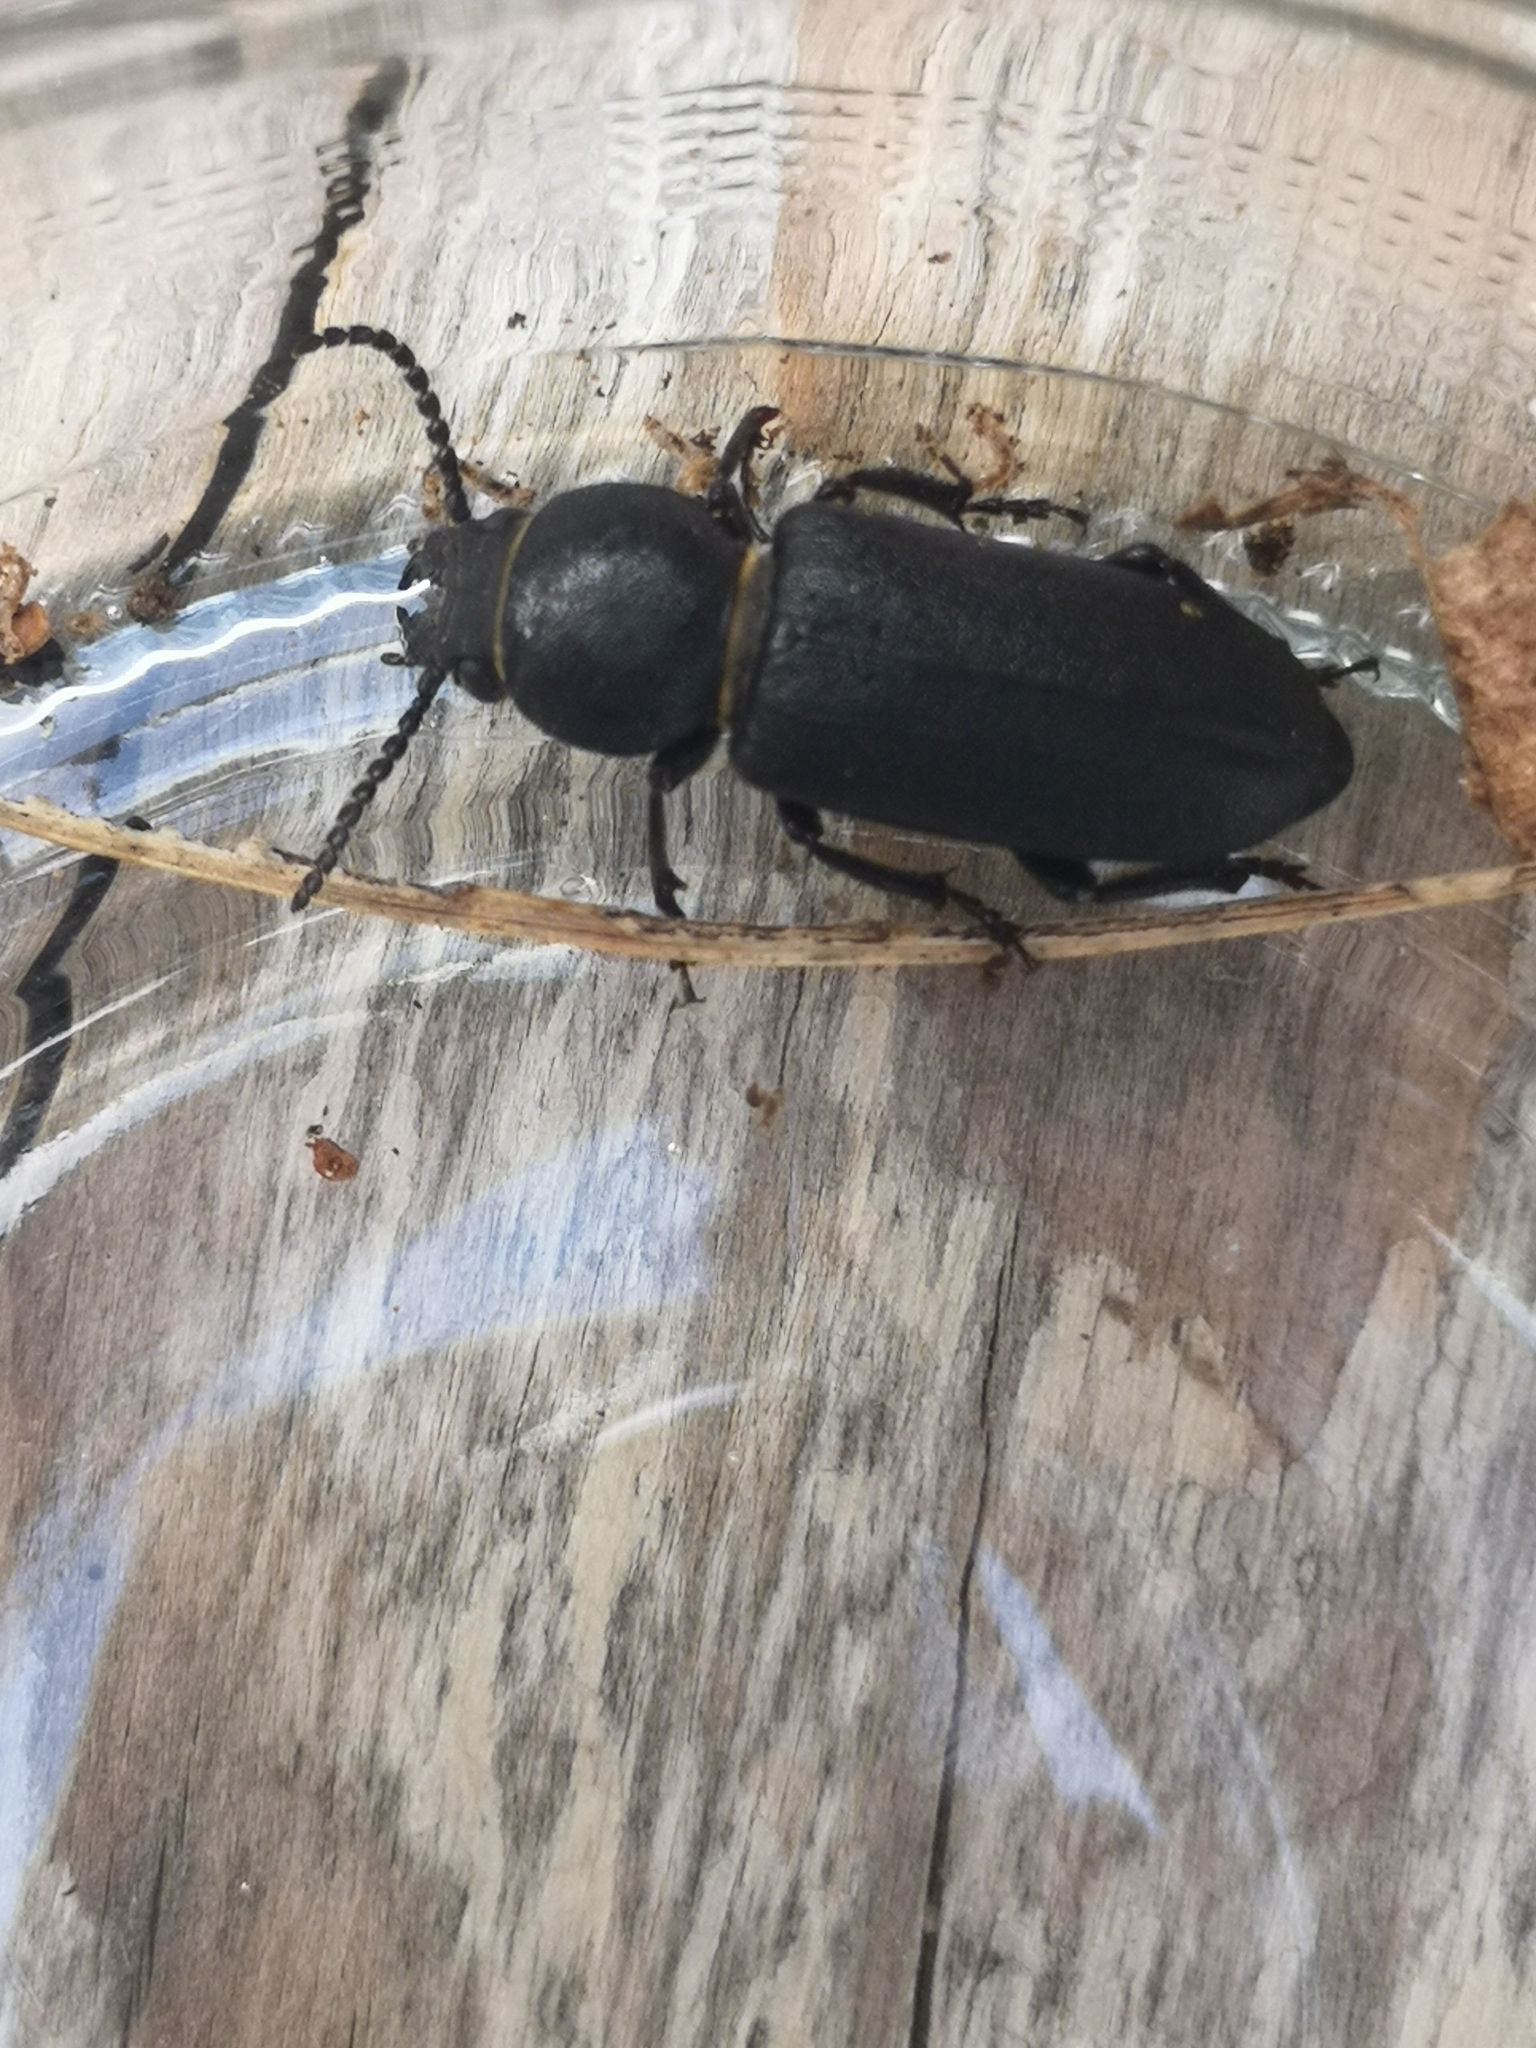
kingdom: Animalia
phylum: Arthropoda
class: Insecta
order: Coleoptera
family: Cerambycidae
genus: Spondylis
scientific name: Spondylis buprestoides
